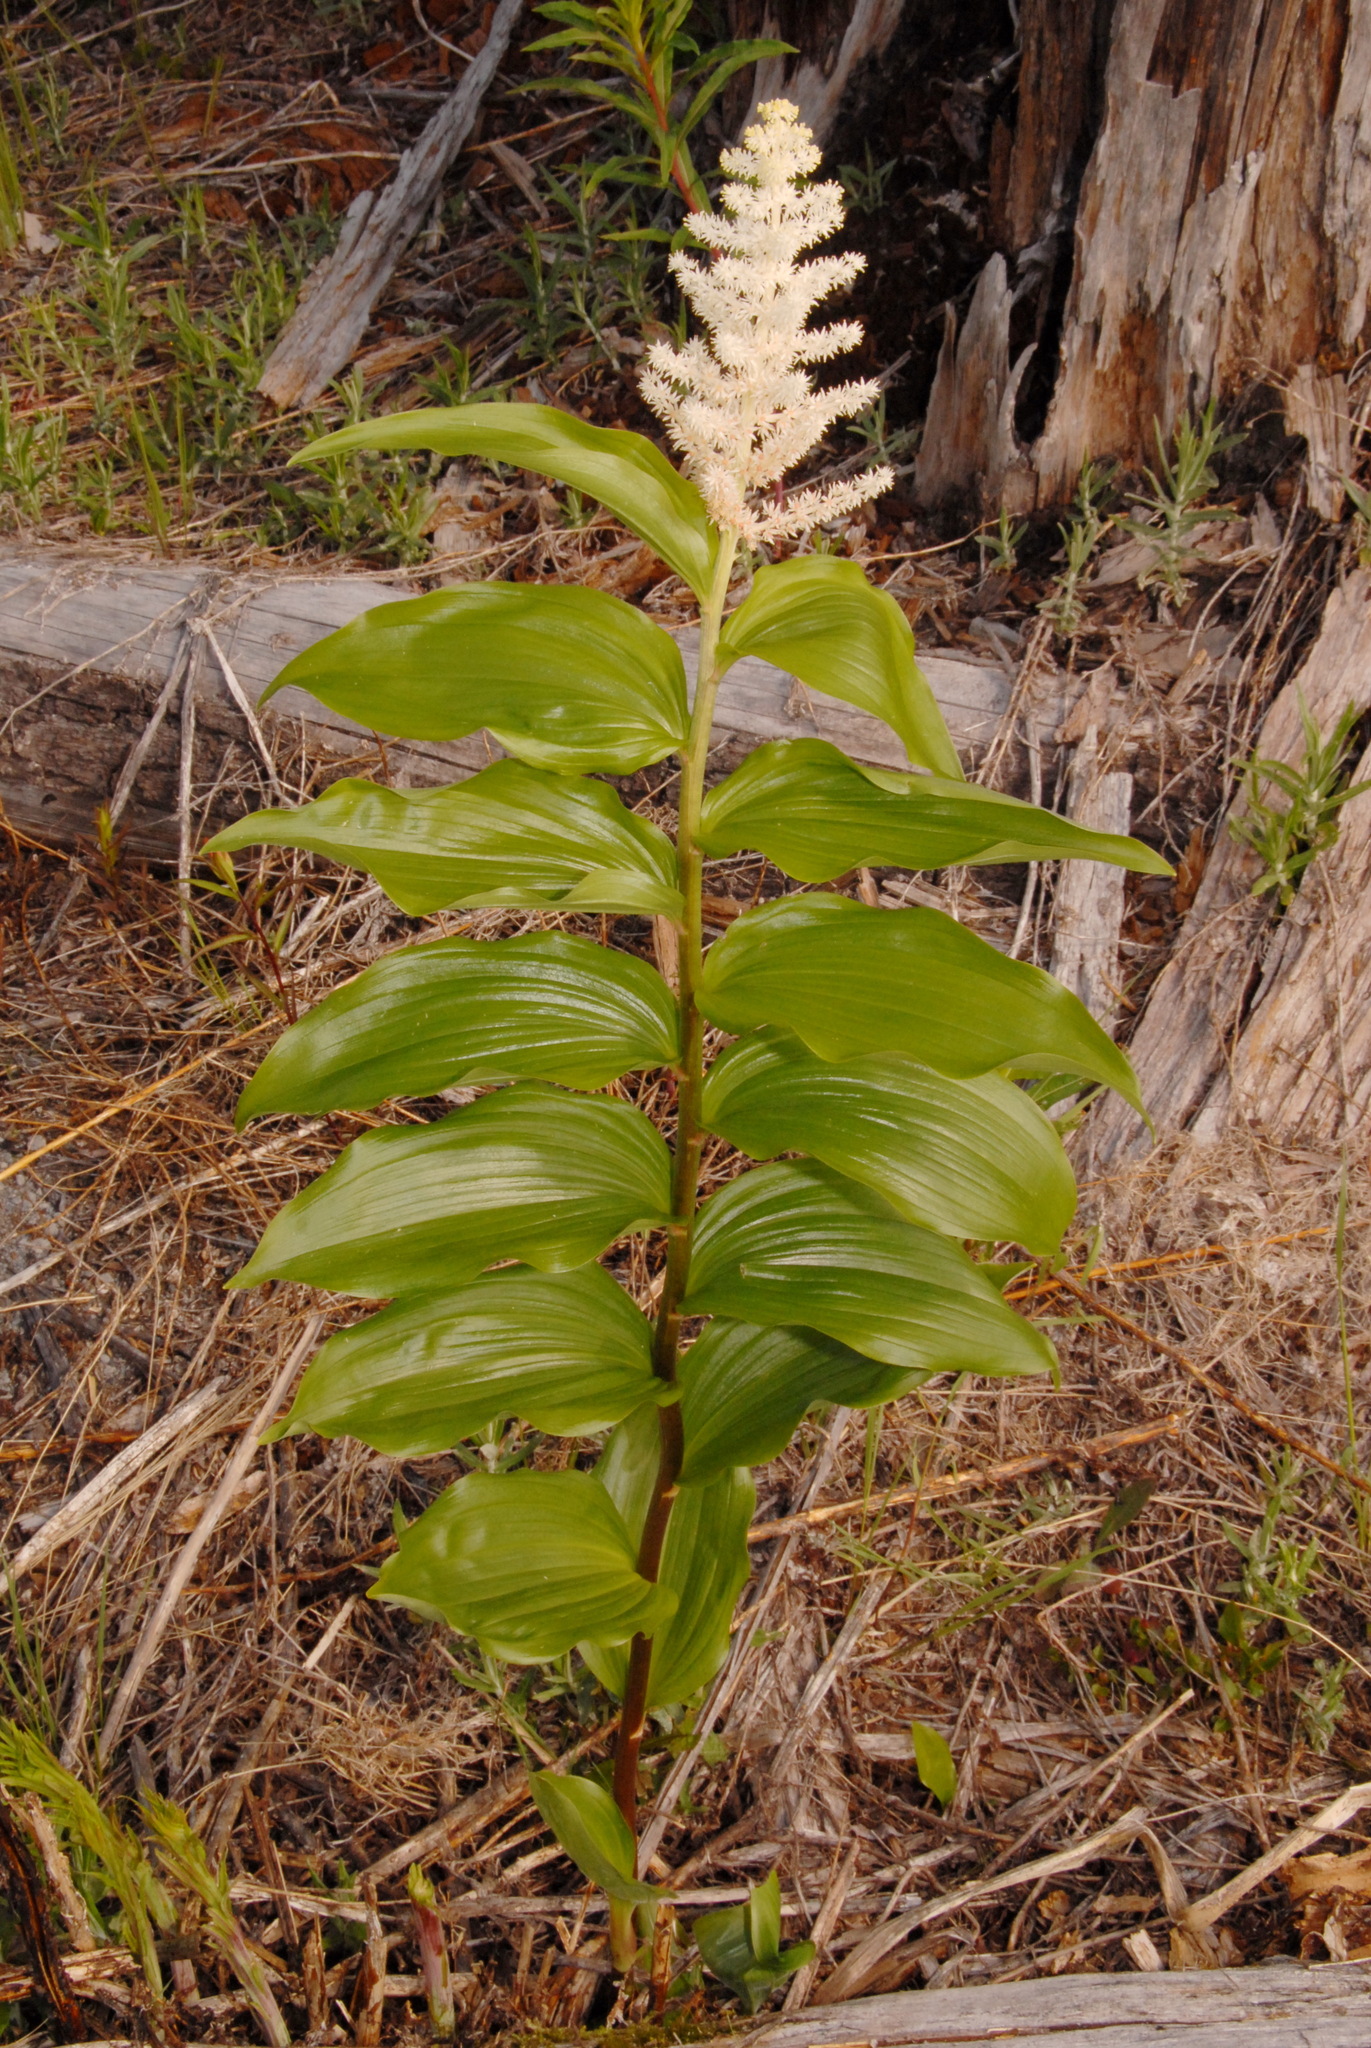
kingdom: Plantae
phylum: Tracheophyta
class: Liliopsida
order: Asparagales
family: Asparagaceae
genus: Maianthemum
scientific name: Maianthemum racemosum
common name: False spikenard
